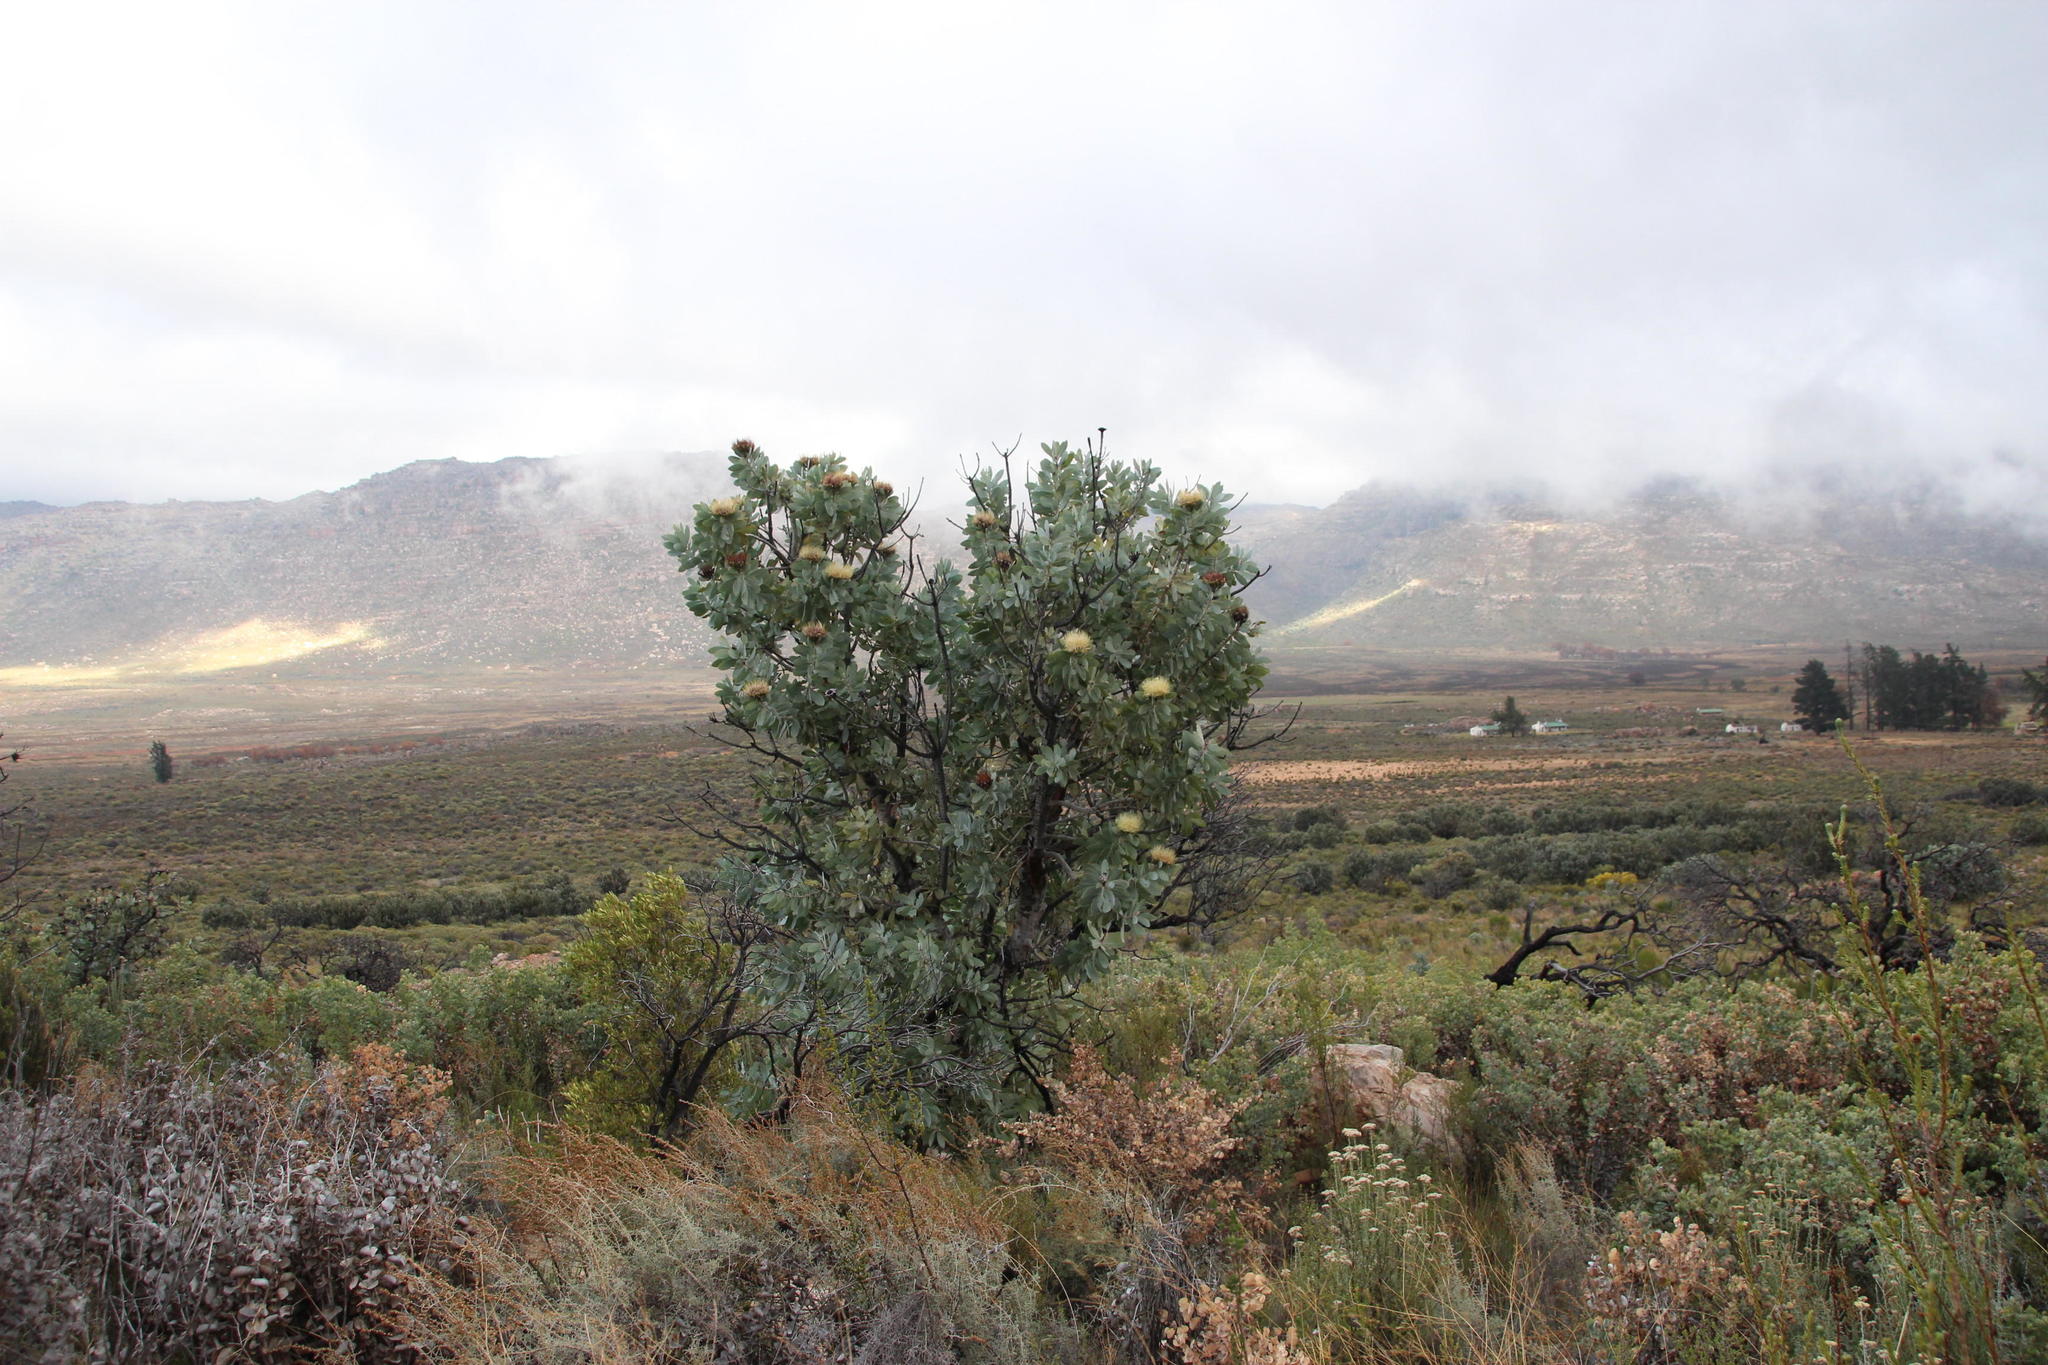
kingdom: Plantae
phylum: Tracheophyta
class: Magnoliopsida
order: Proteales
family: Proteaceae
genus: Protea
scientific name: Protea nitida
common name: Tree protea
